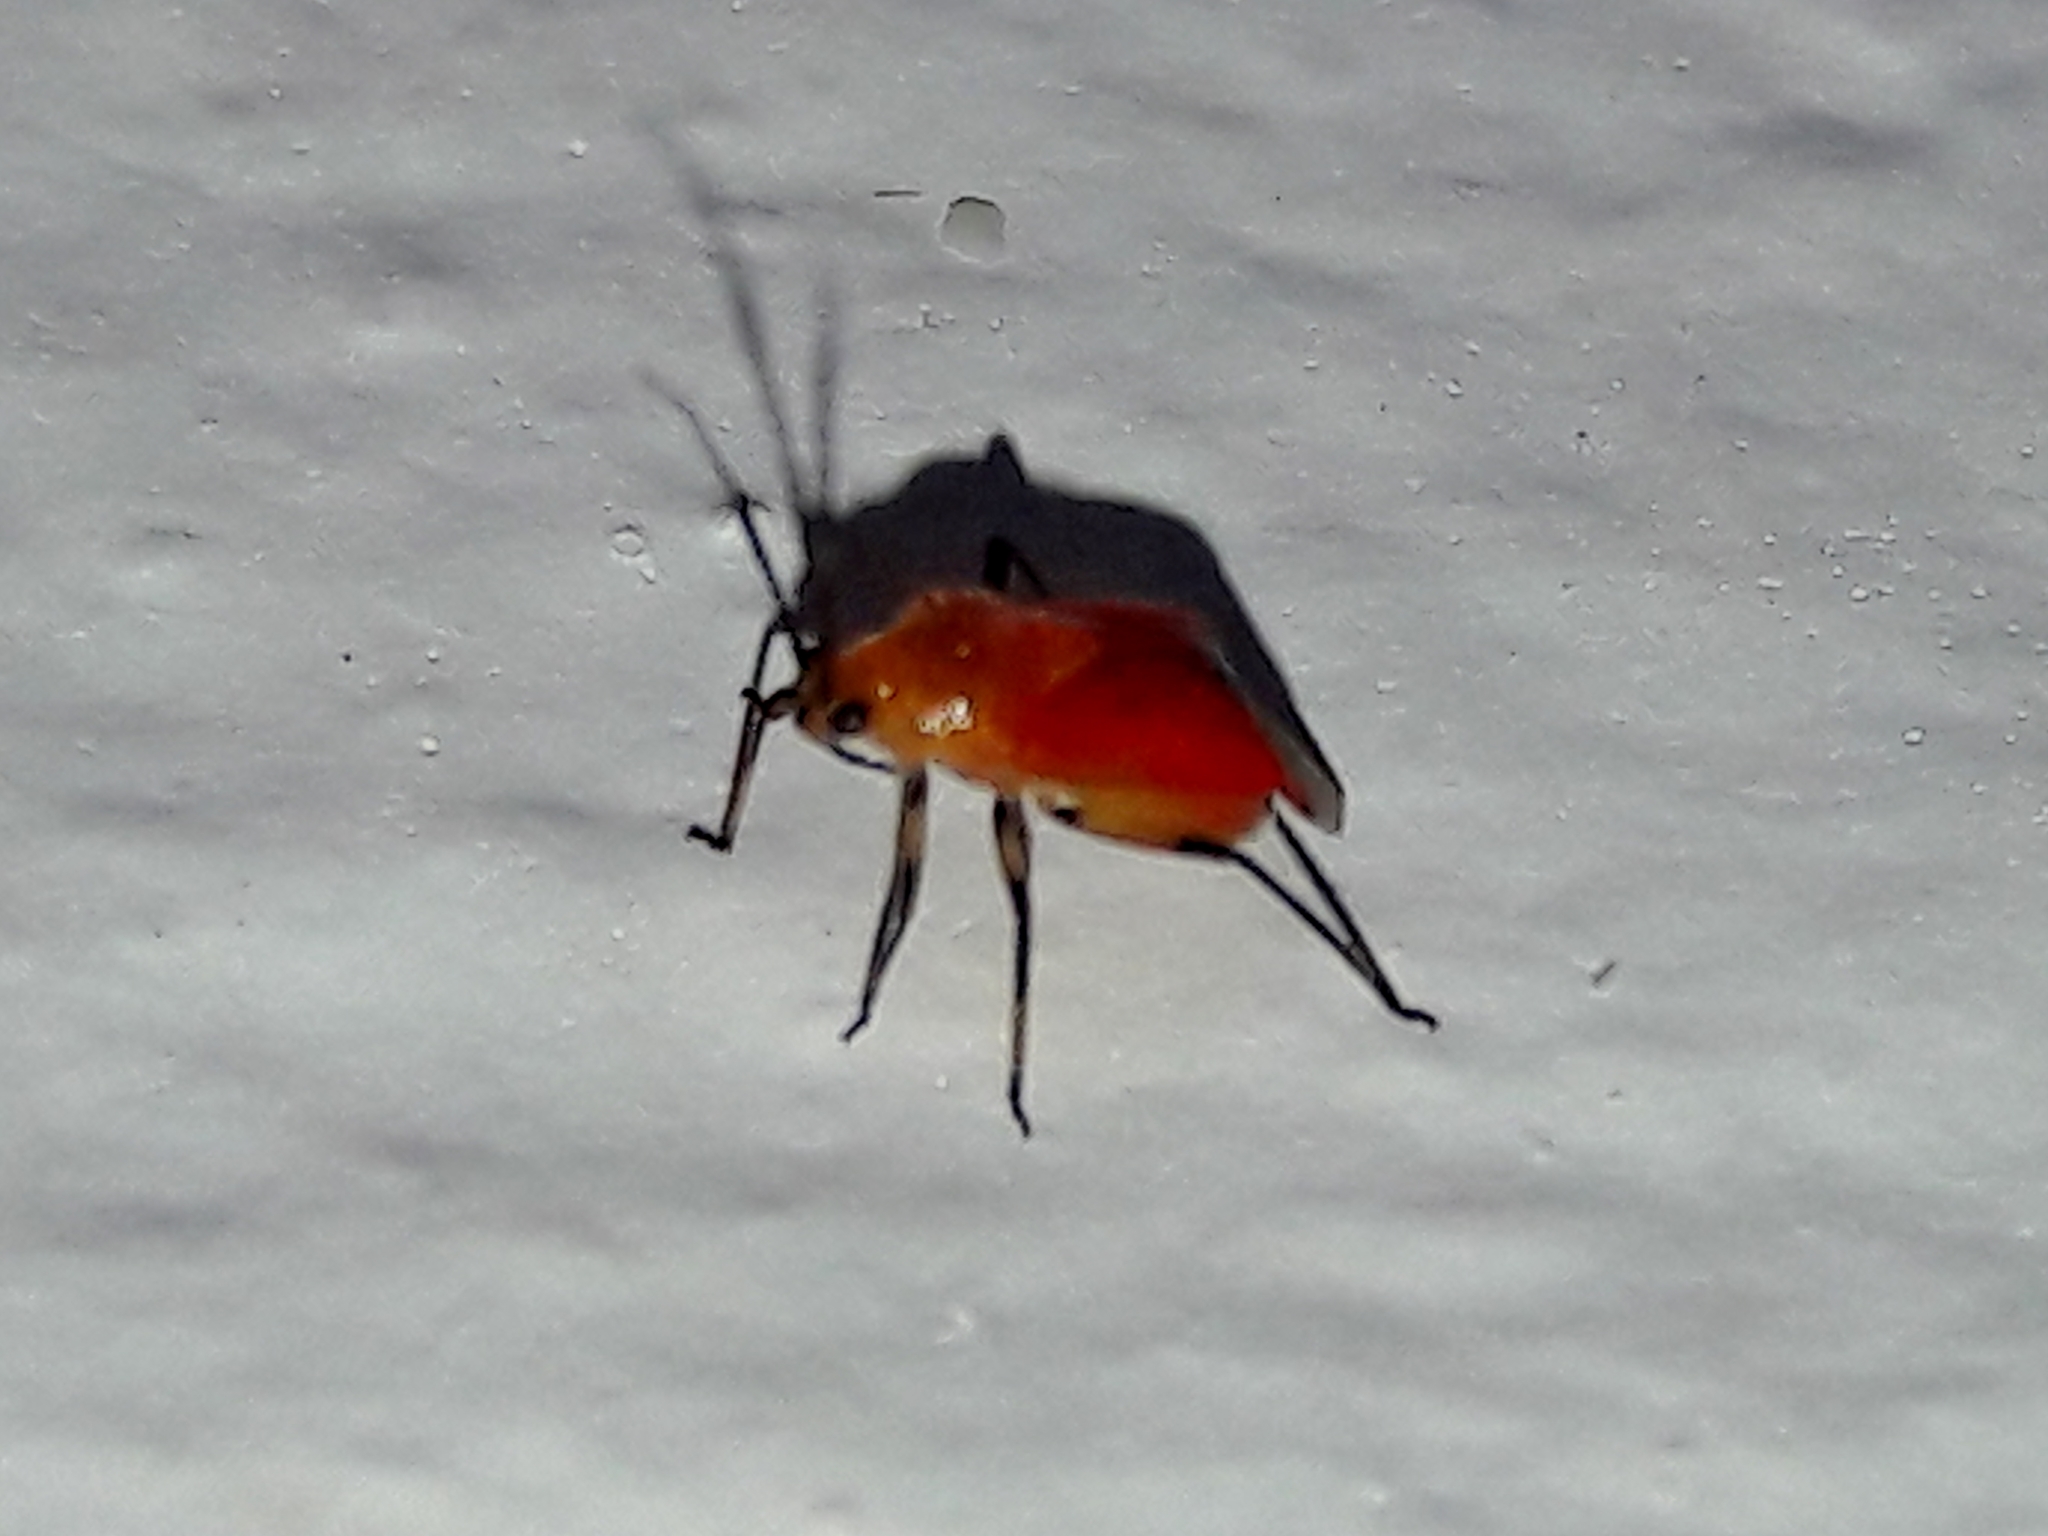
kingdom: Animalia
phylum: Arthropoda
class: Insecta
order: Hemiptera
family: Miridae
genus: Ambracius
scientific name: Ambracius dufouri
